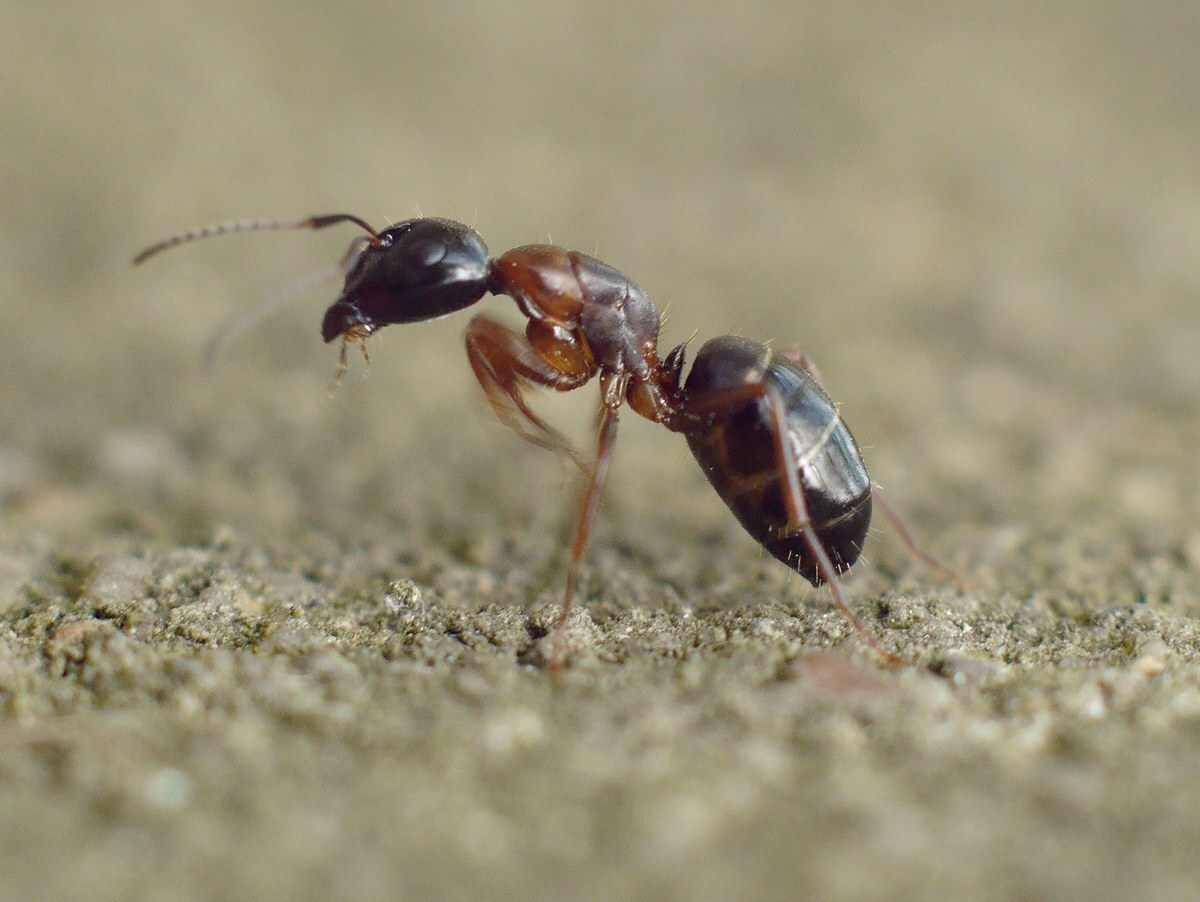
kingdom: Animalia
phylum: Arthropoda
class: Insecta
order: Hymenoptera
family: Formicidae
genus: Camponotus
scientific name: Camponotus fallax
